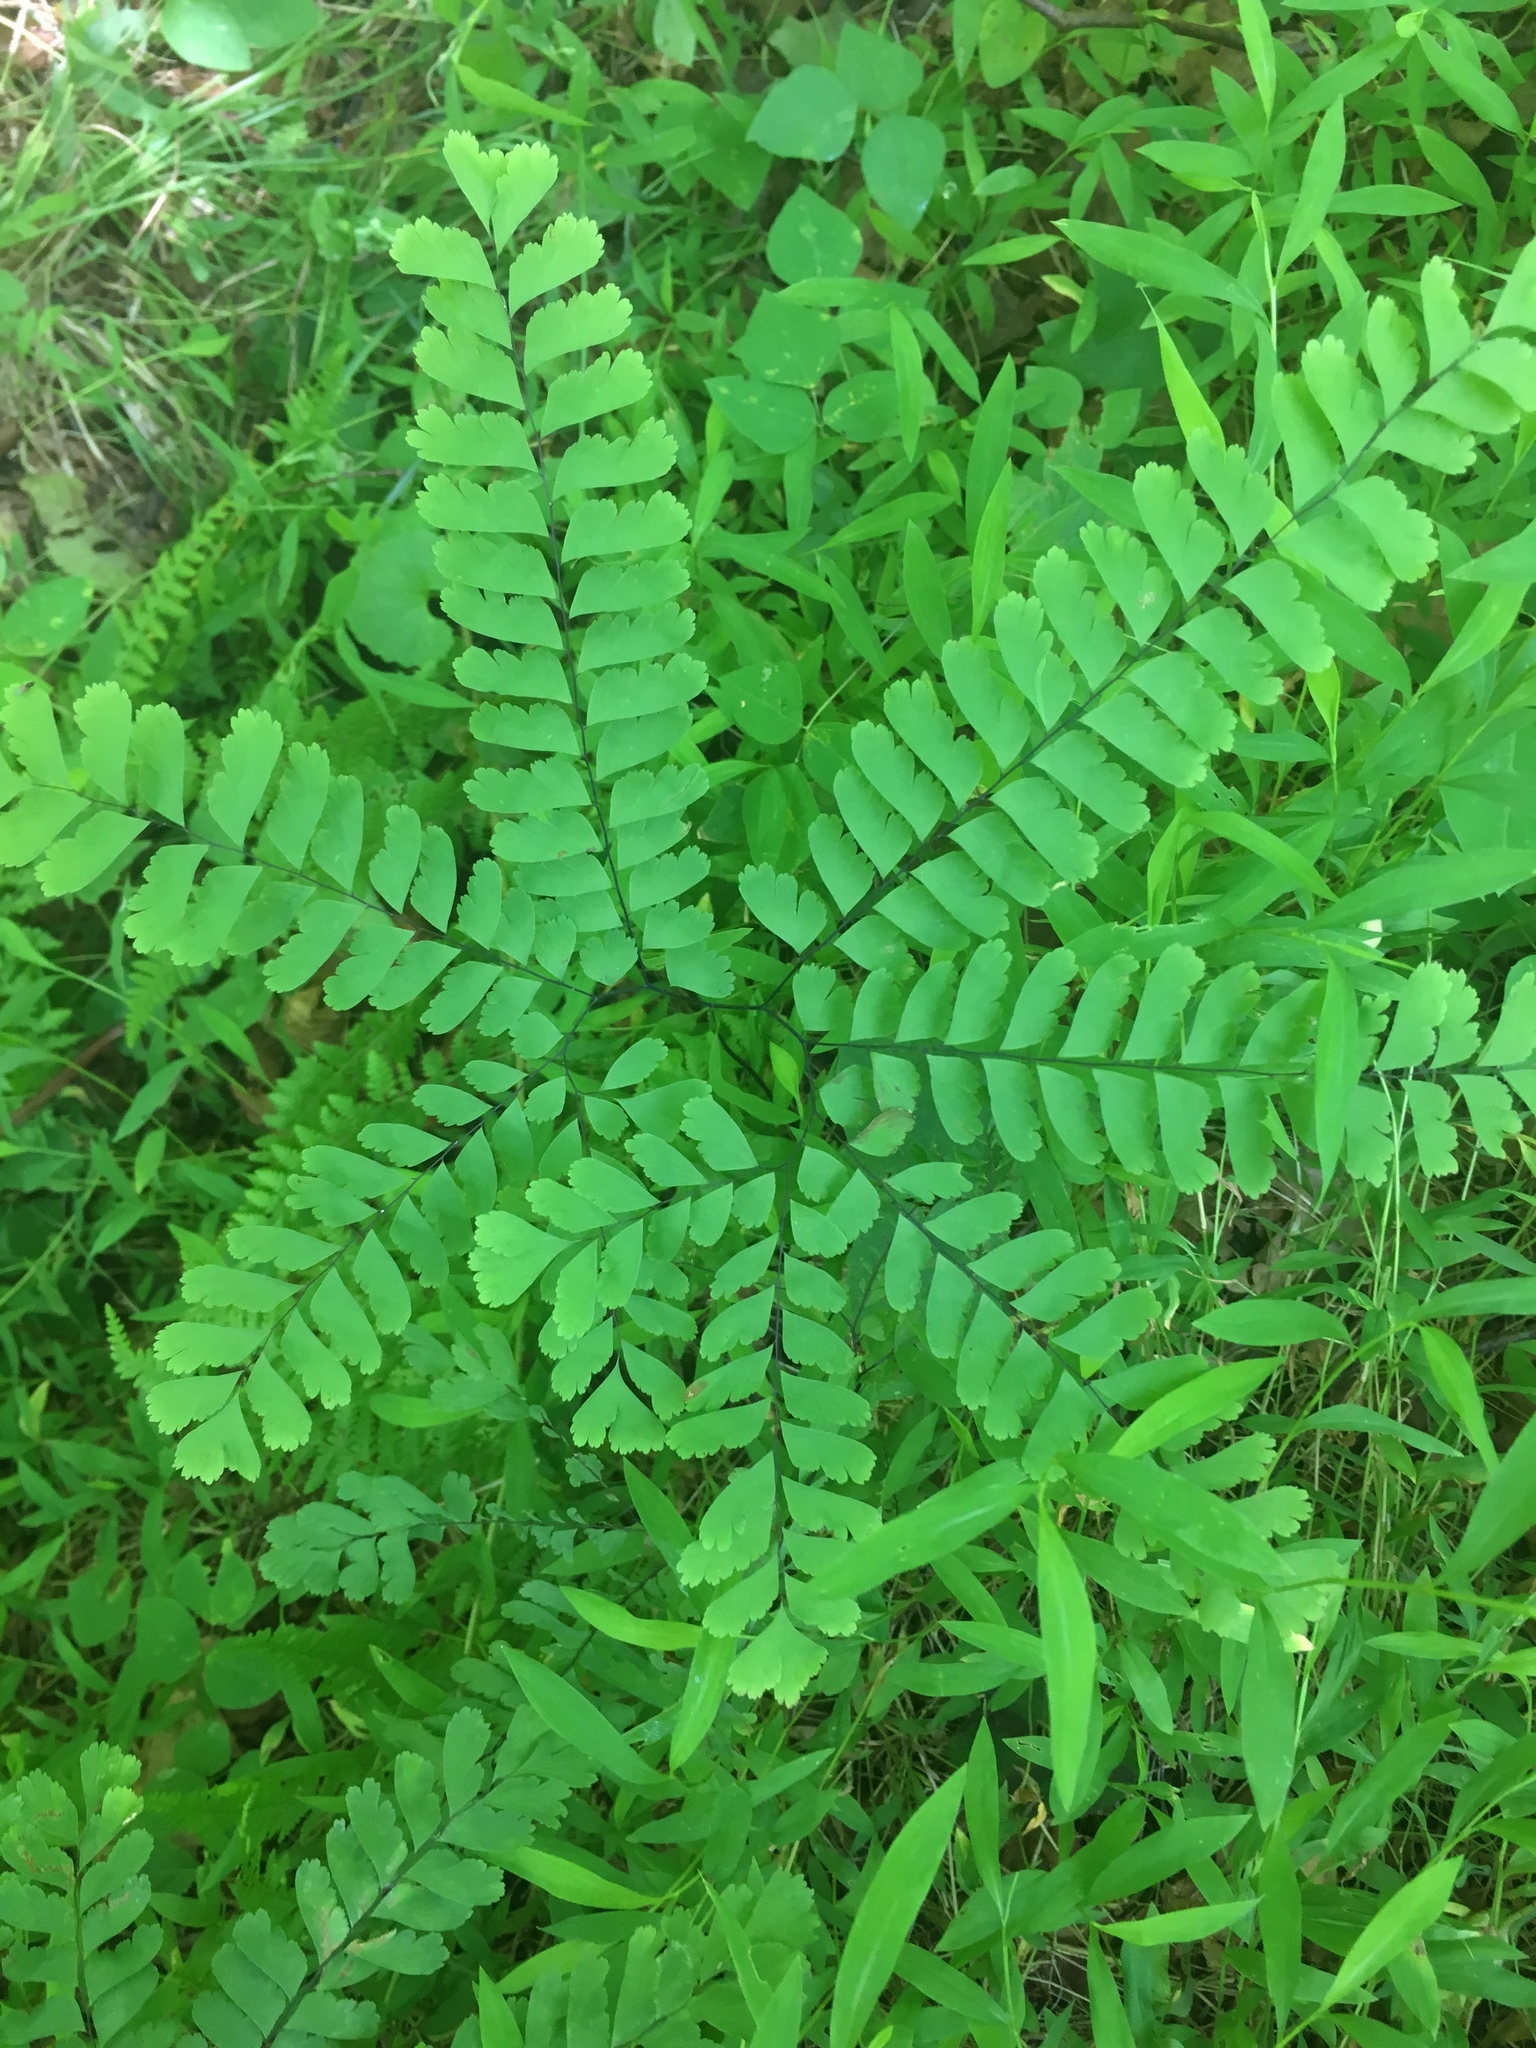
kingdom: Plantae
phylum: Tracheophyta
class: Polypodiopsida
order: Polypodiales
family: Pteridaceae
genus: Adiantum
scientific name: Adiantum pedatum
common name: Five-finger fern
